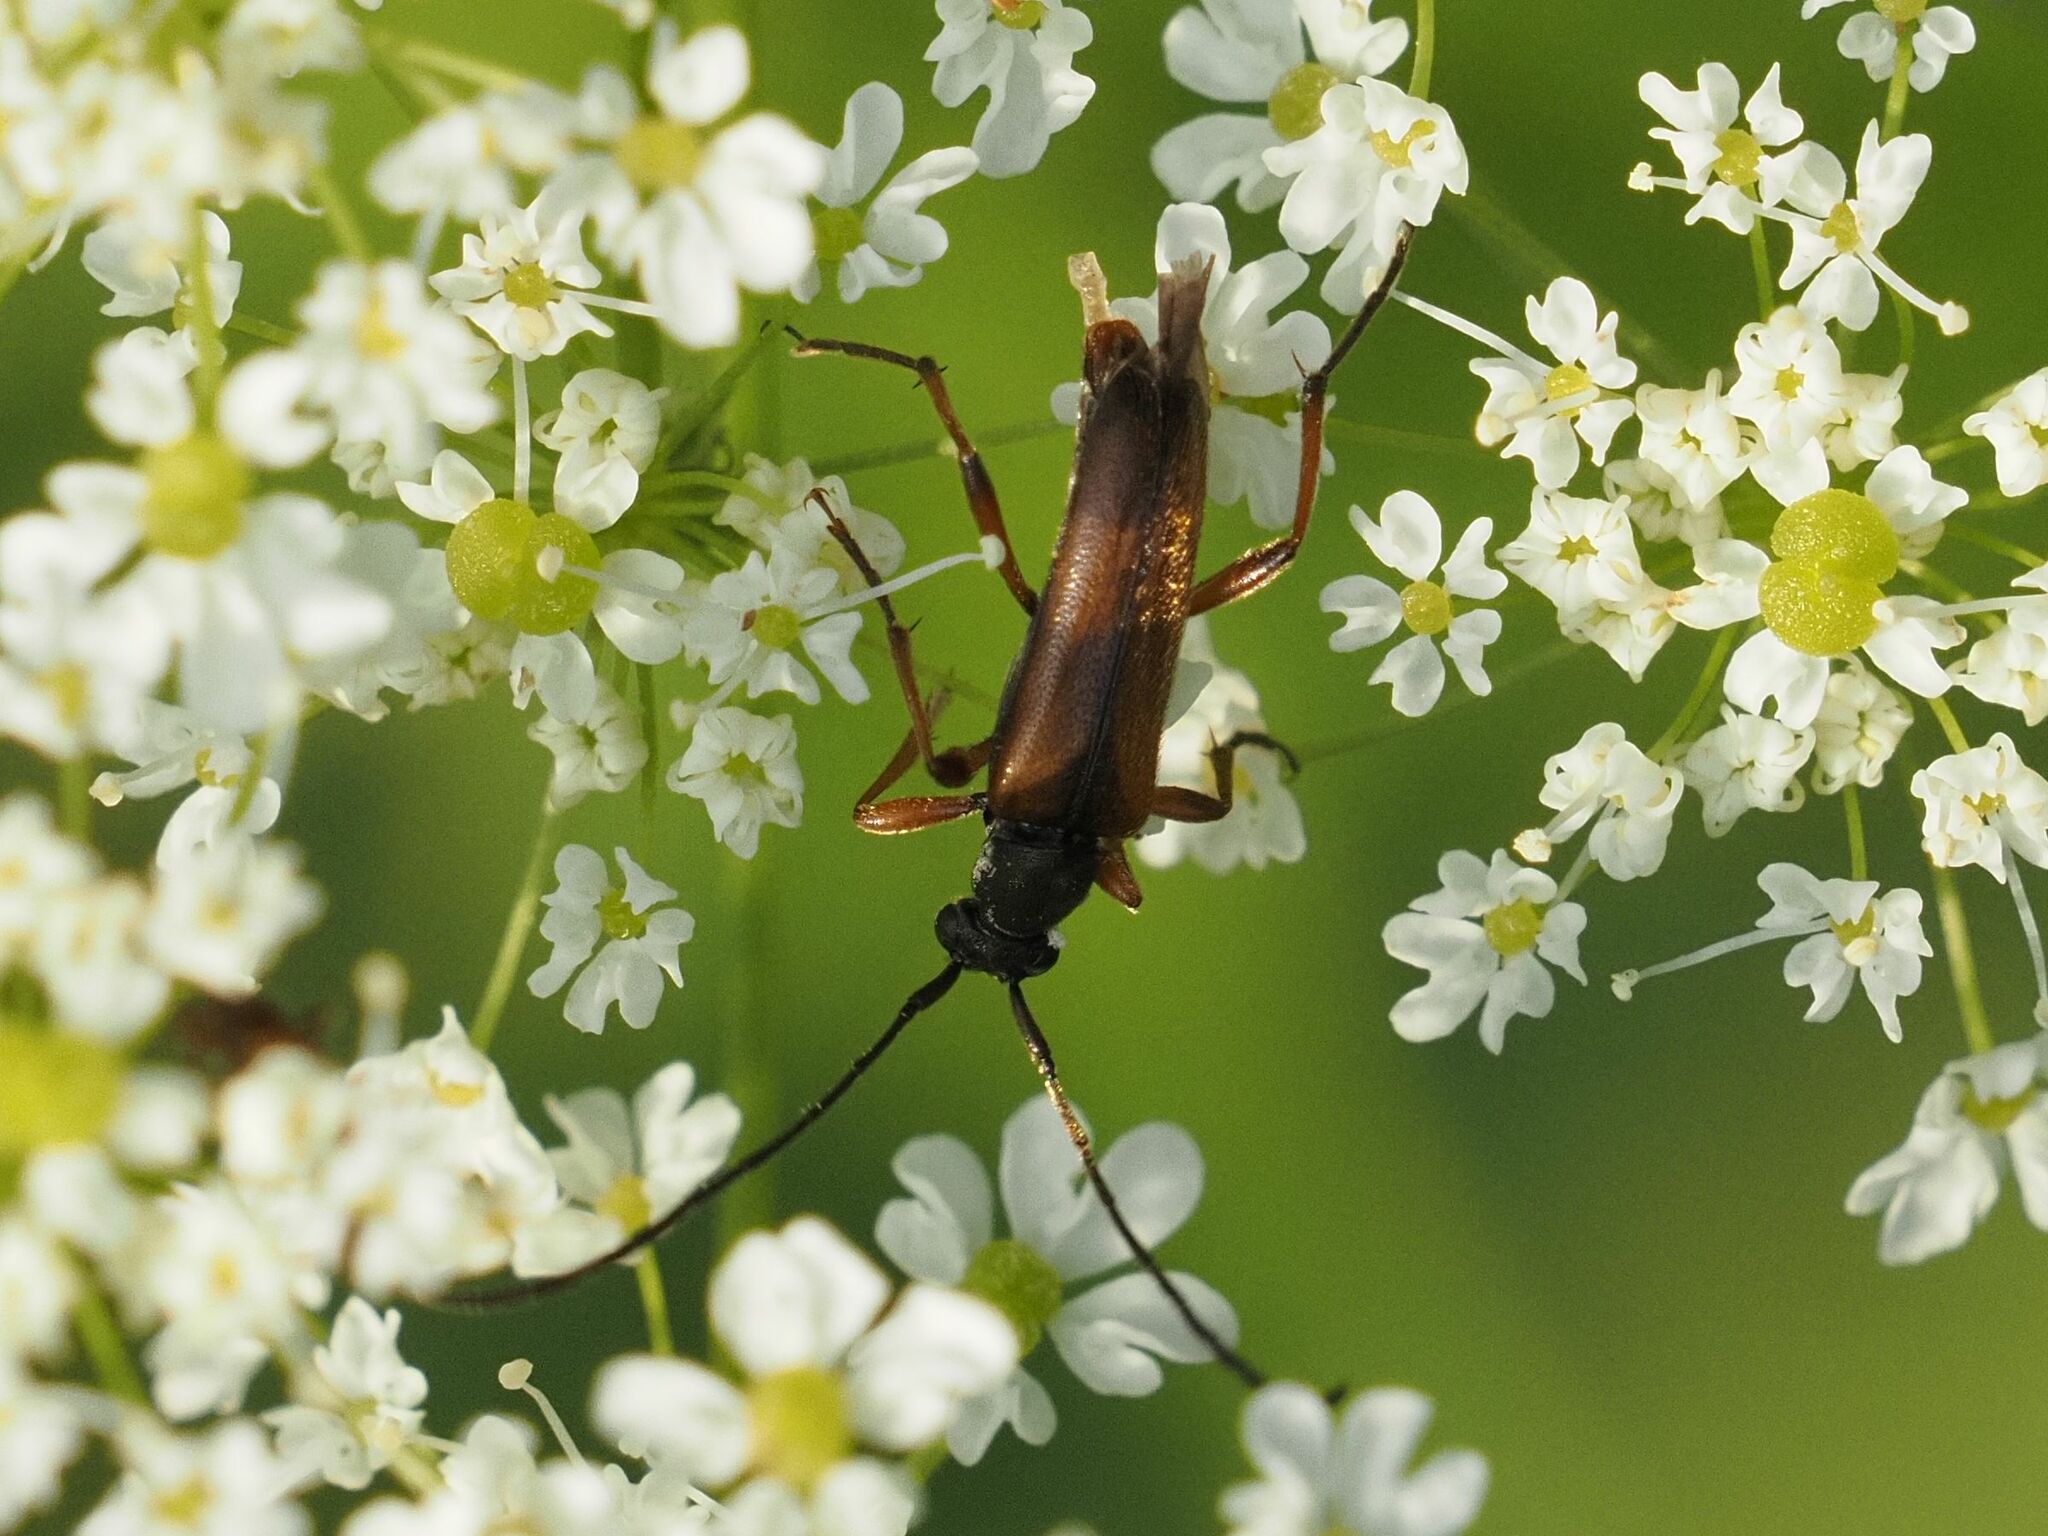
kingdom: Animalia
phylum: Arthropoda
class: Insecta
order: Coleoptera
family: Cerambycidae
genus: Alosterna
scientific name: Alosterna tabacicolor
